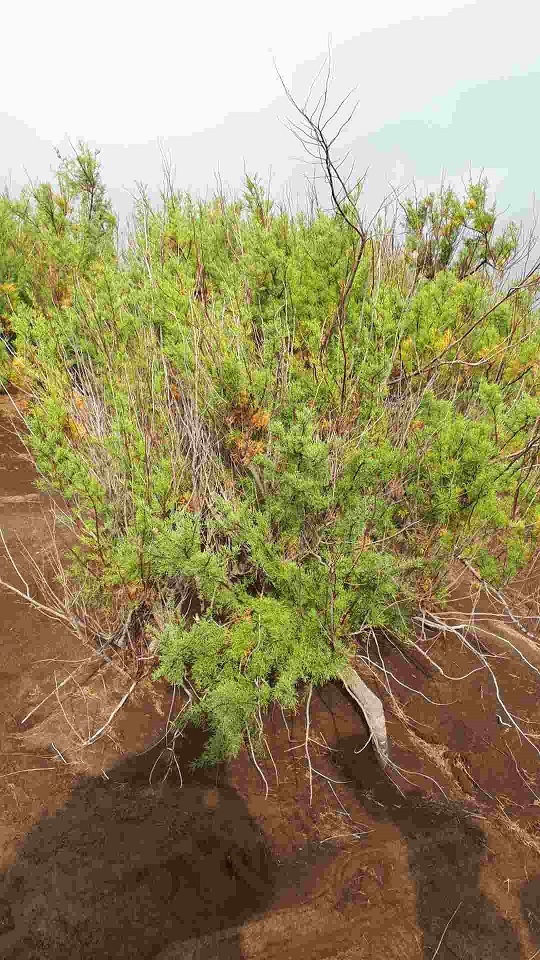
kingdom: Plantae
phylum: Tracheophyta
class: Magnoliopsida
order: Caryophyllales
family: Tamaricaceae
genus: Tamarix
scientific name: Tamarix africana
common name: African tamarisk
